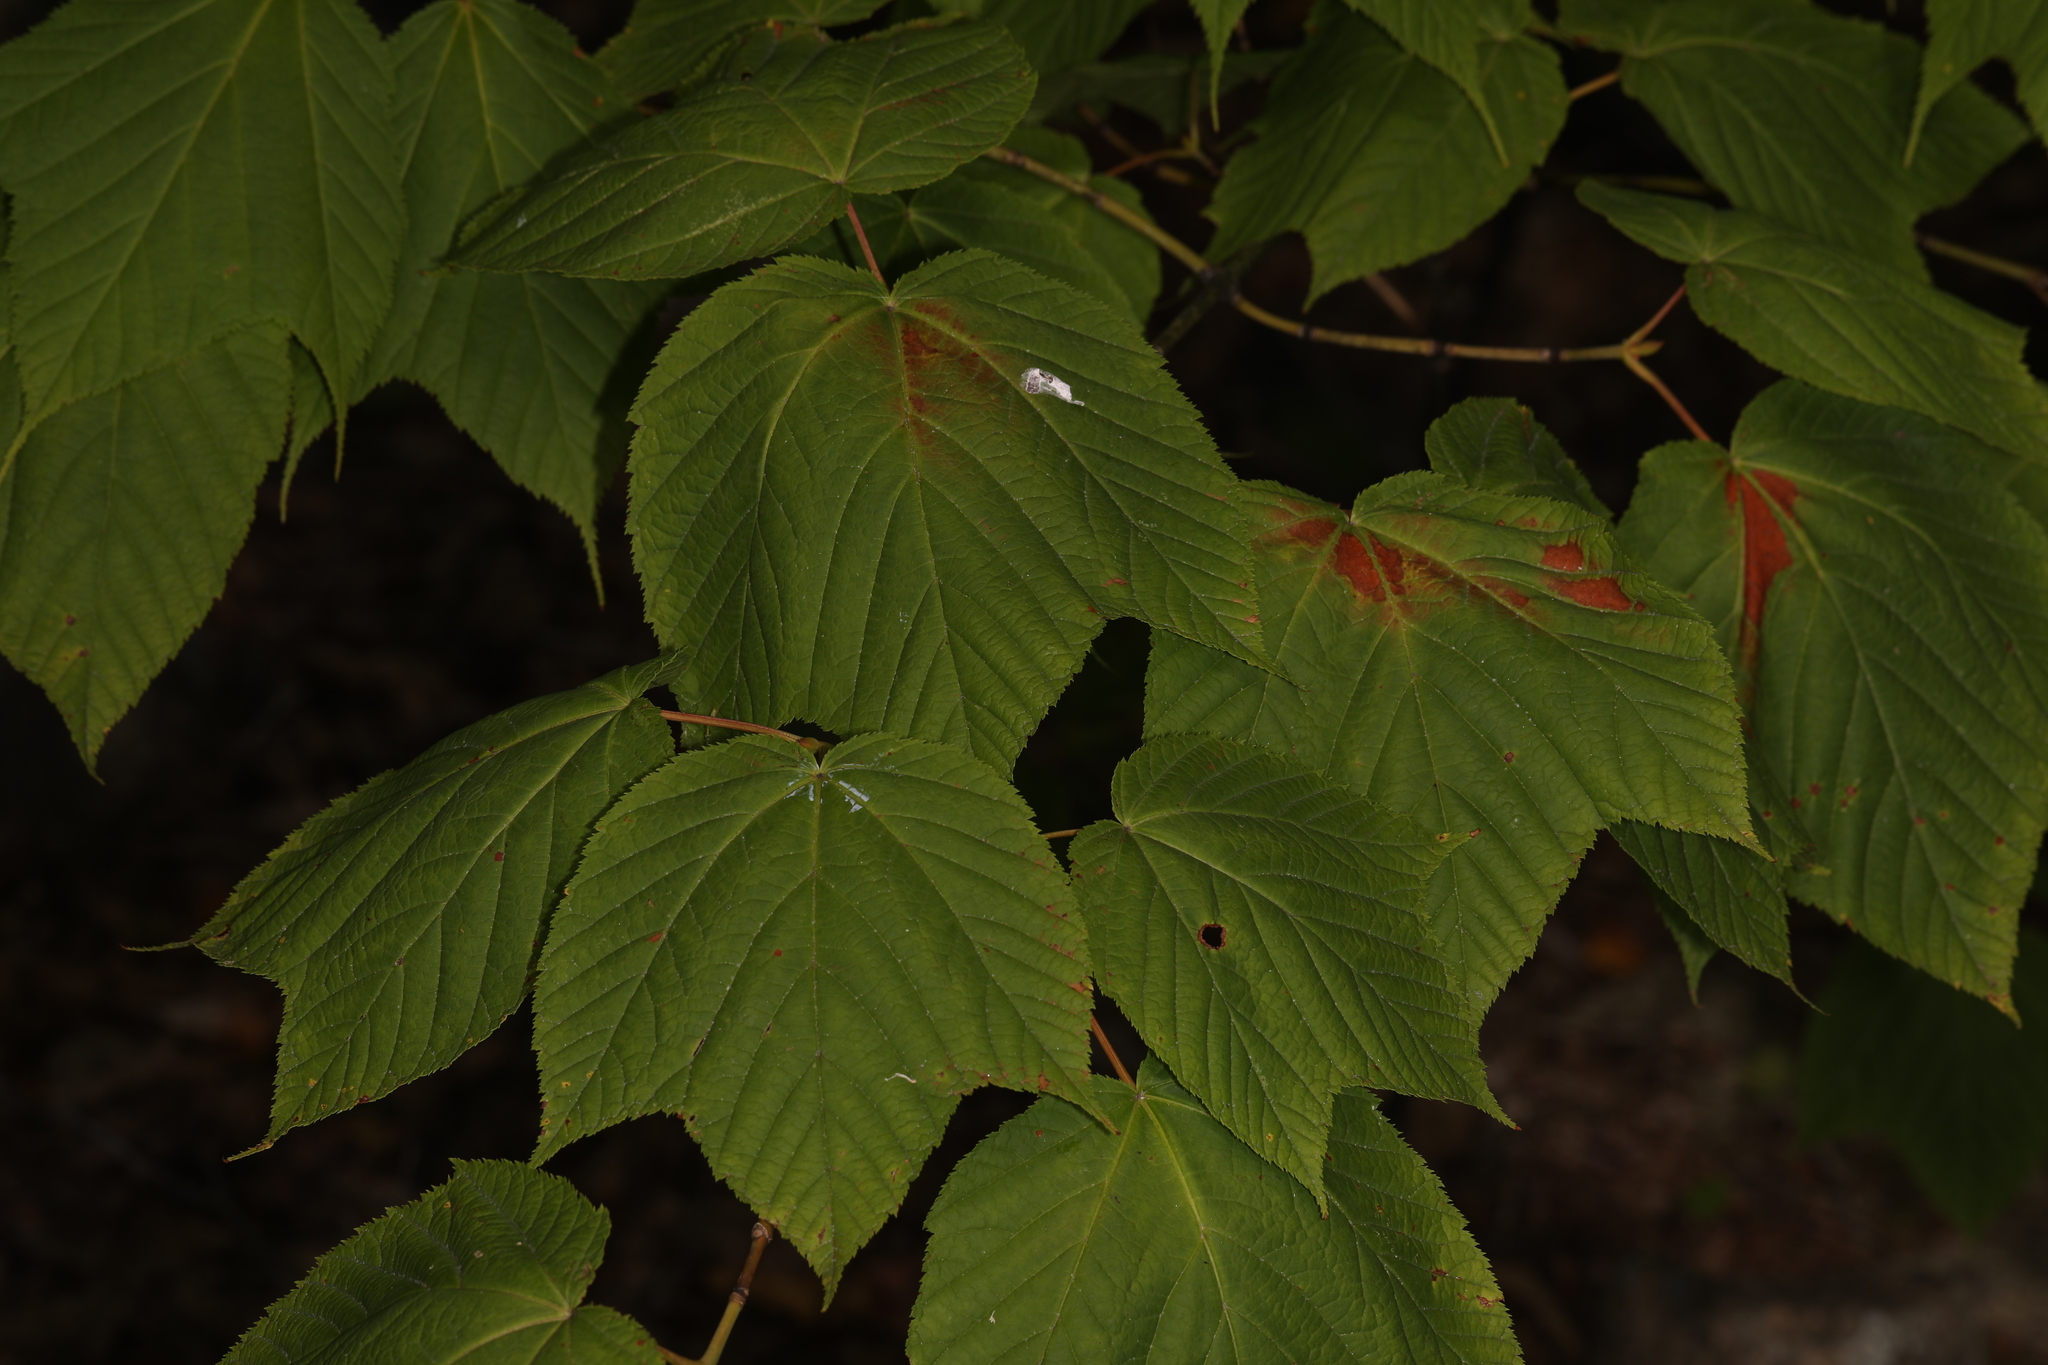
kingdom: Plantae
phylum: Tracheophyta
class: Magnoliopsida
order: Sapindales
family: Sapindaceae
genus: Acer
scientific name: Acer pensylvanicum
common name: Moosewood
